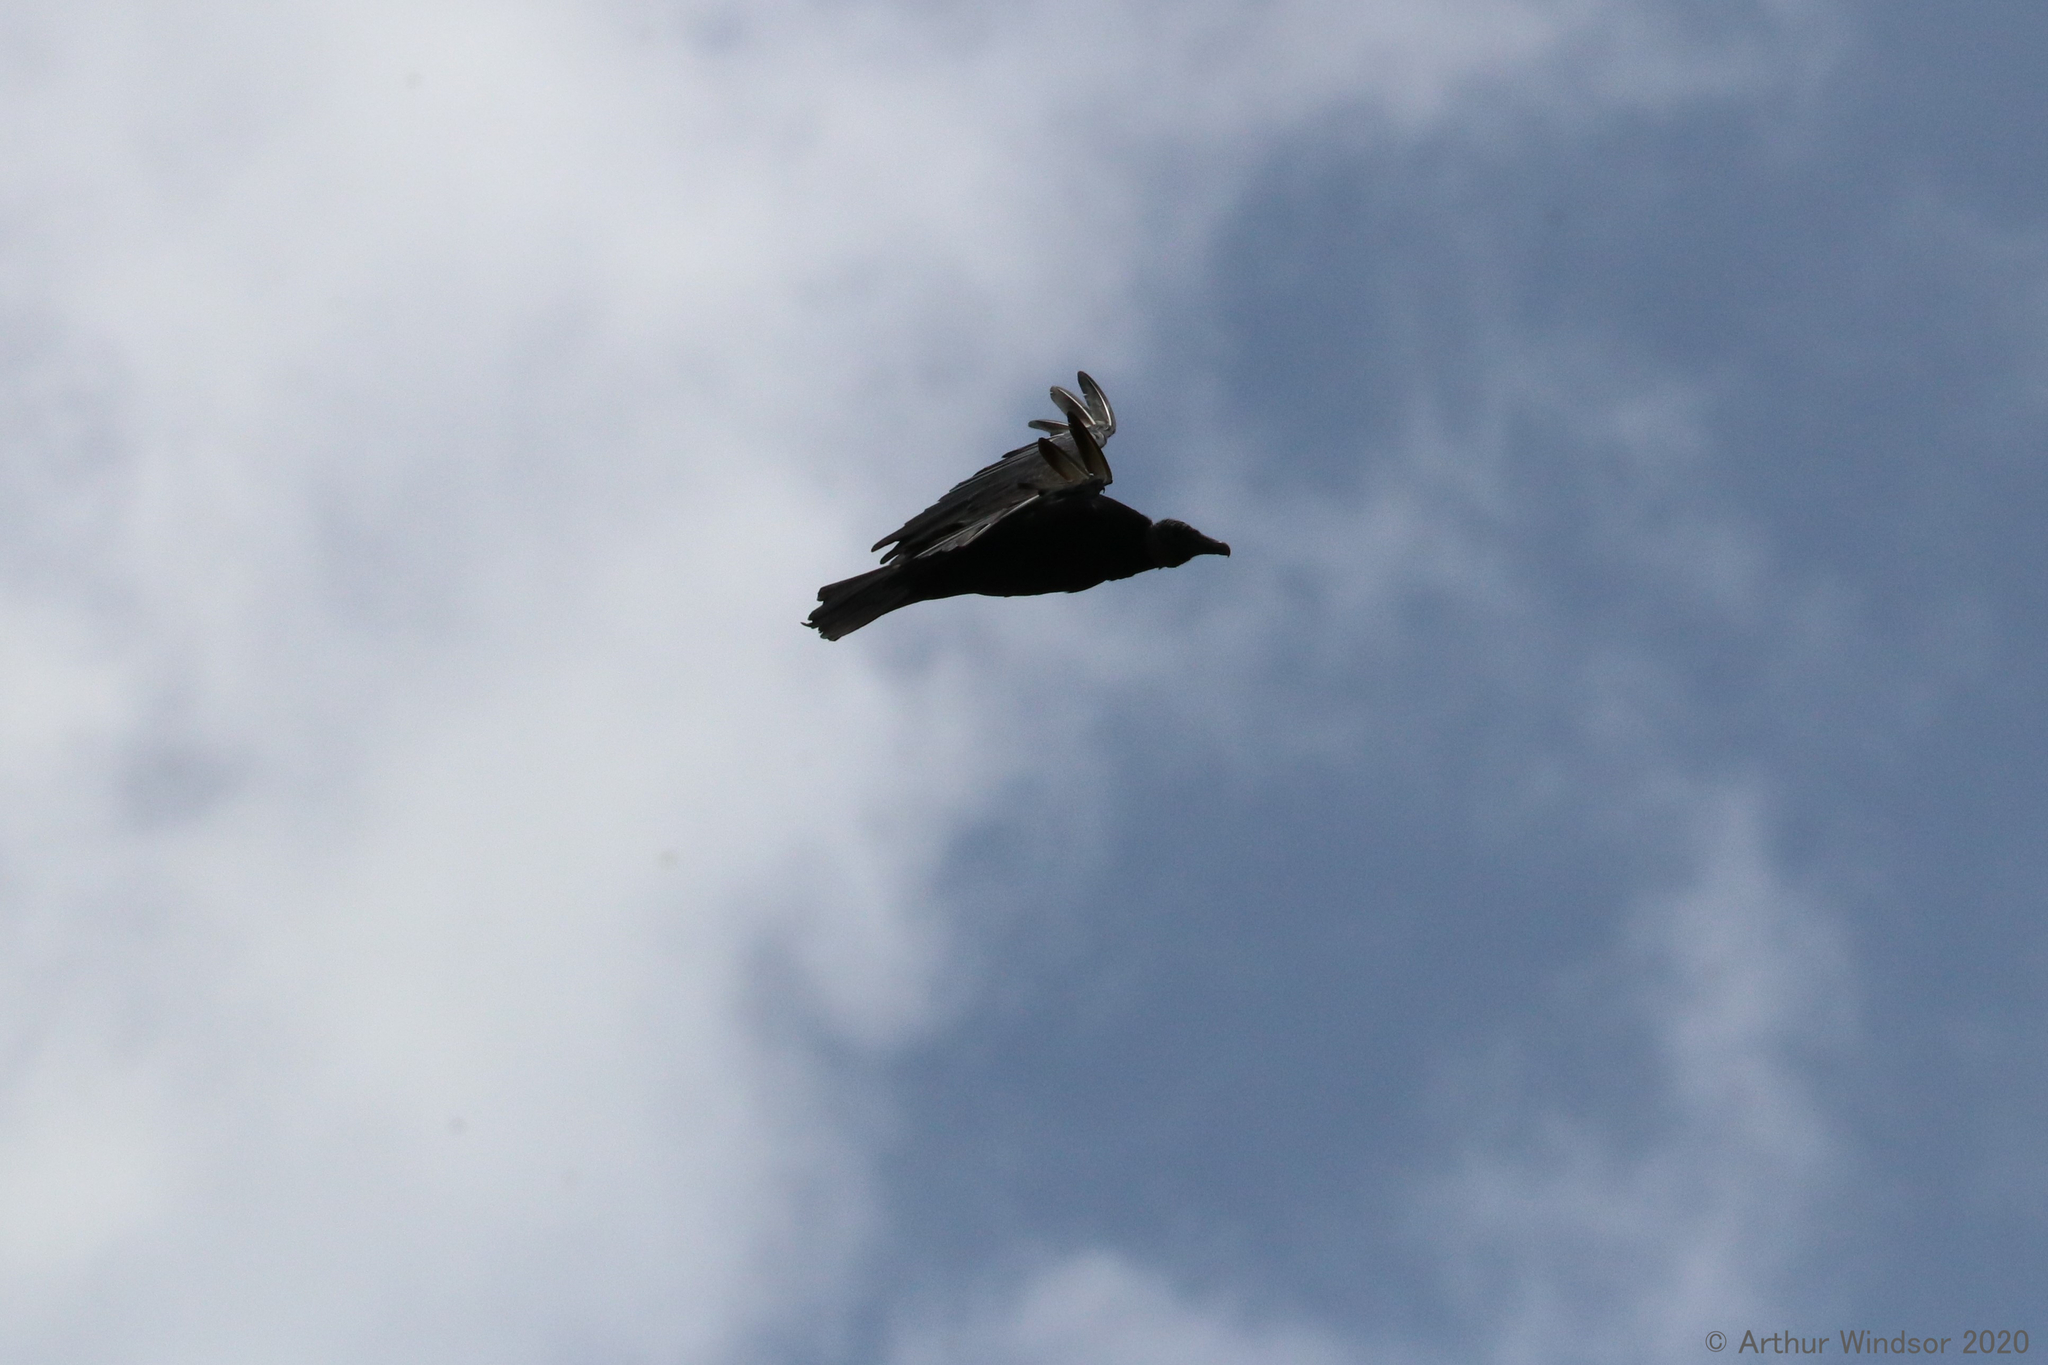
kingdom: Animalia
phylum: Chordata
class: Aves
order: Accipitriformes
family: Cathartidae
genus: Coragyps
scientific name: Coragyps atratus
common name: Black vulture
